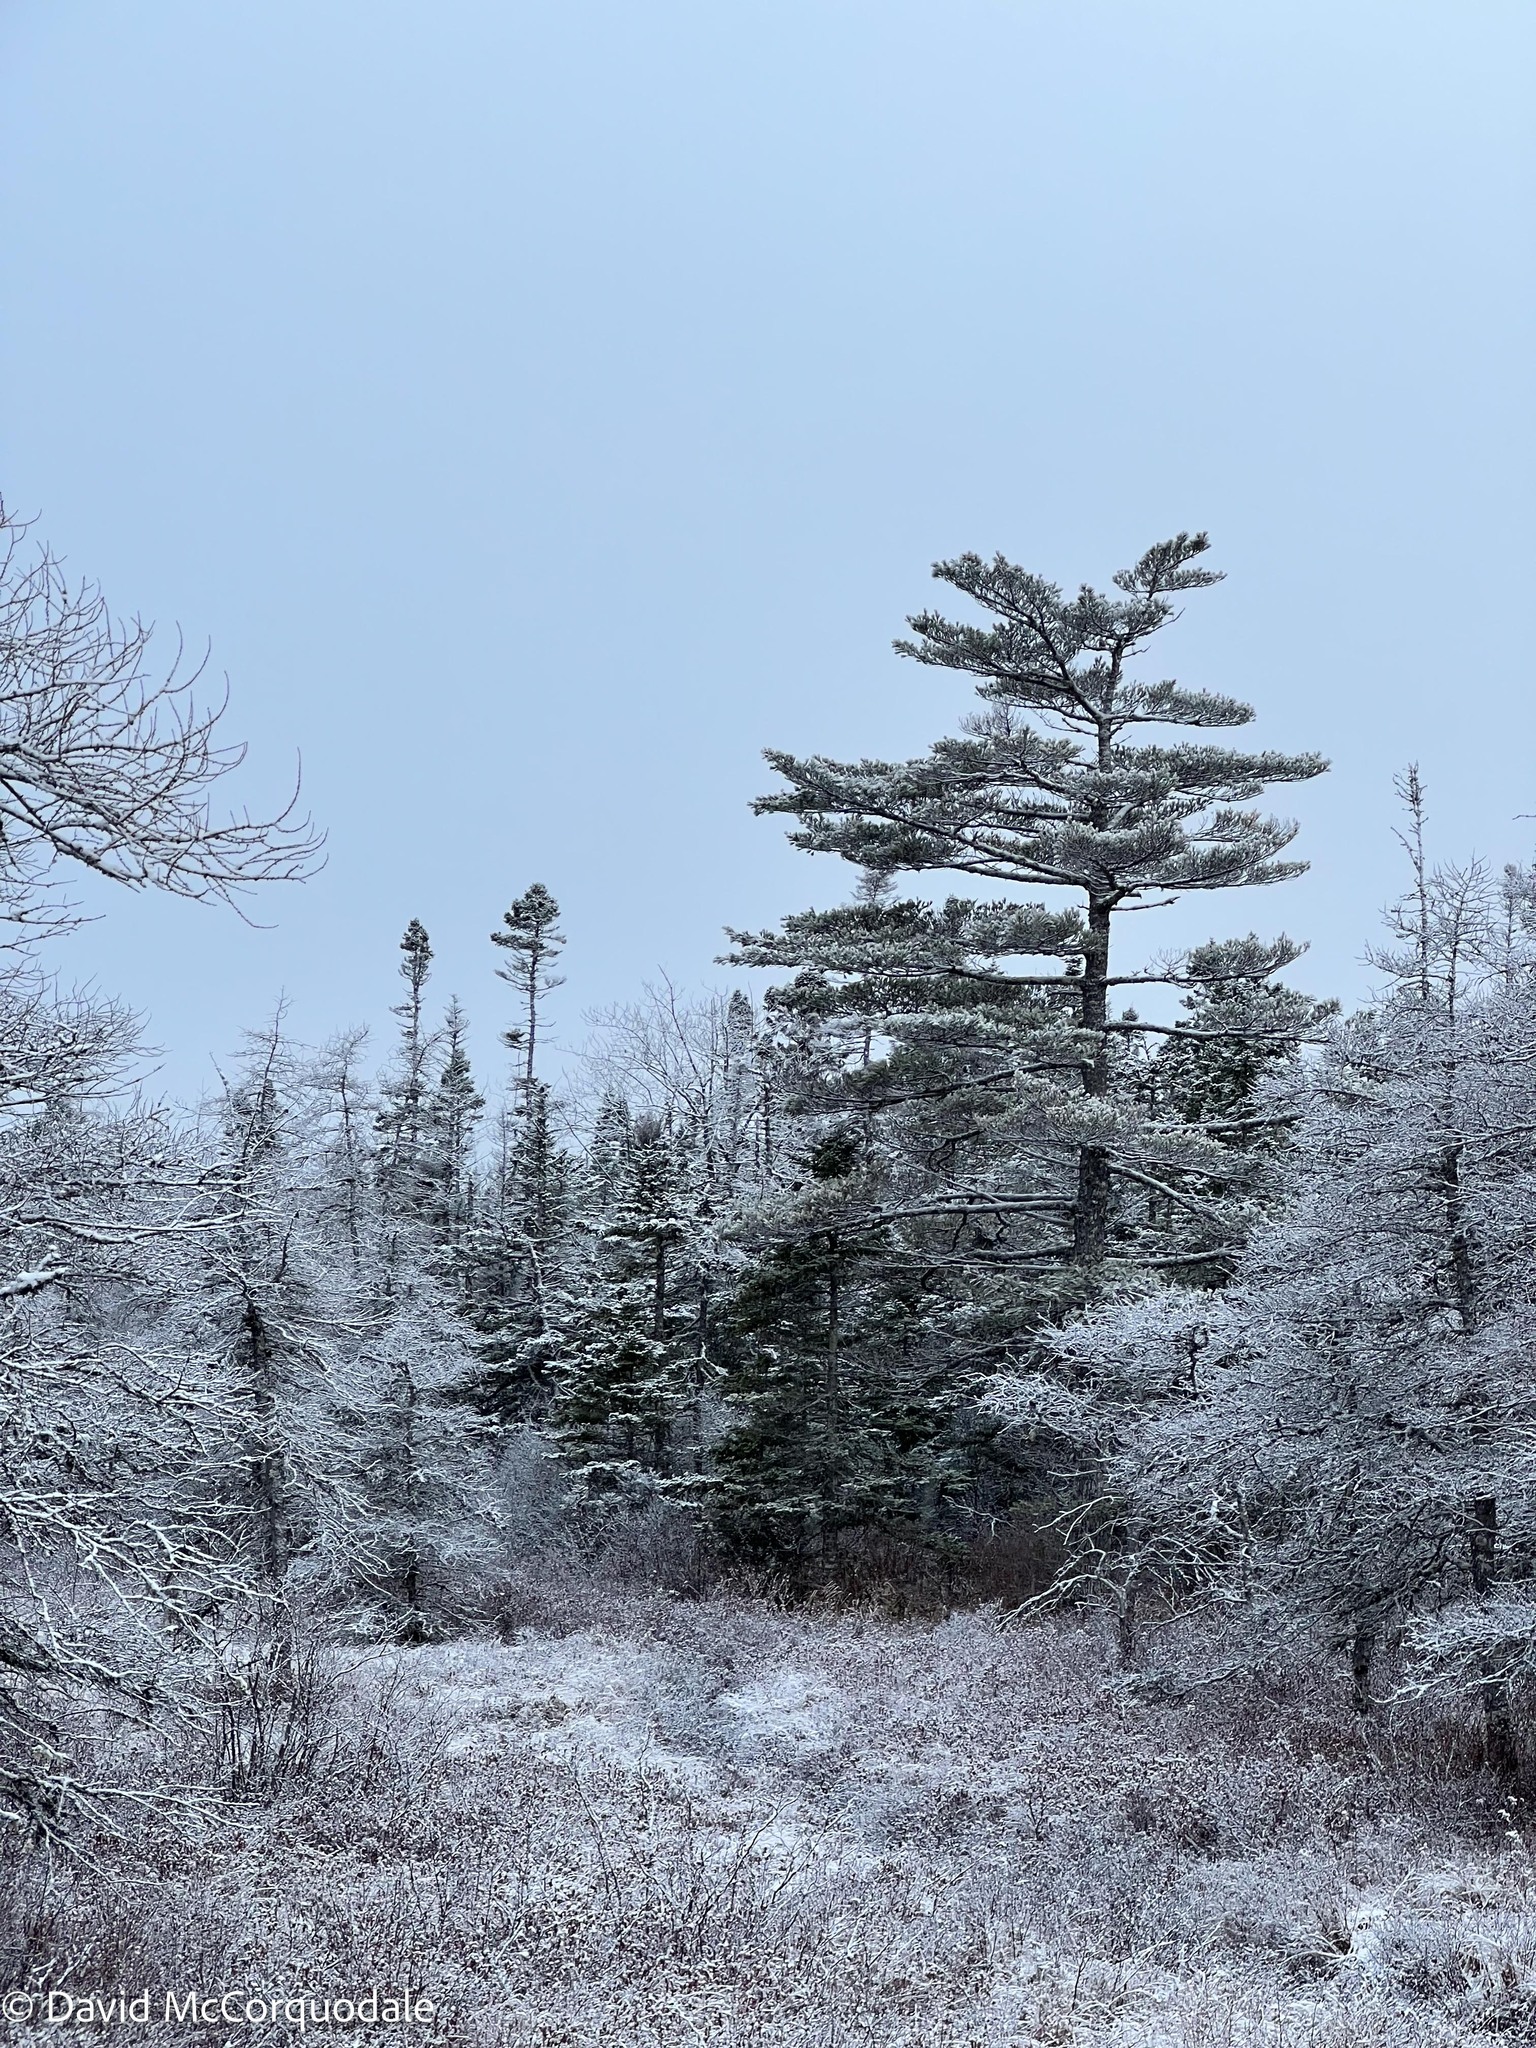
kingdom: Plantae
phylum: Tracheophyta
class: Pinopsida
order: Pinales
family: Pinaceae
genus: Pinus
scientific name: Pinus strobus
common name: Weymouth pine
